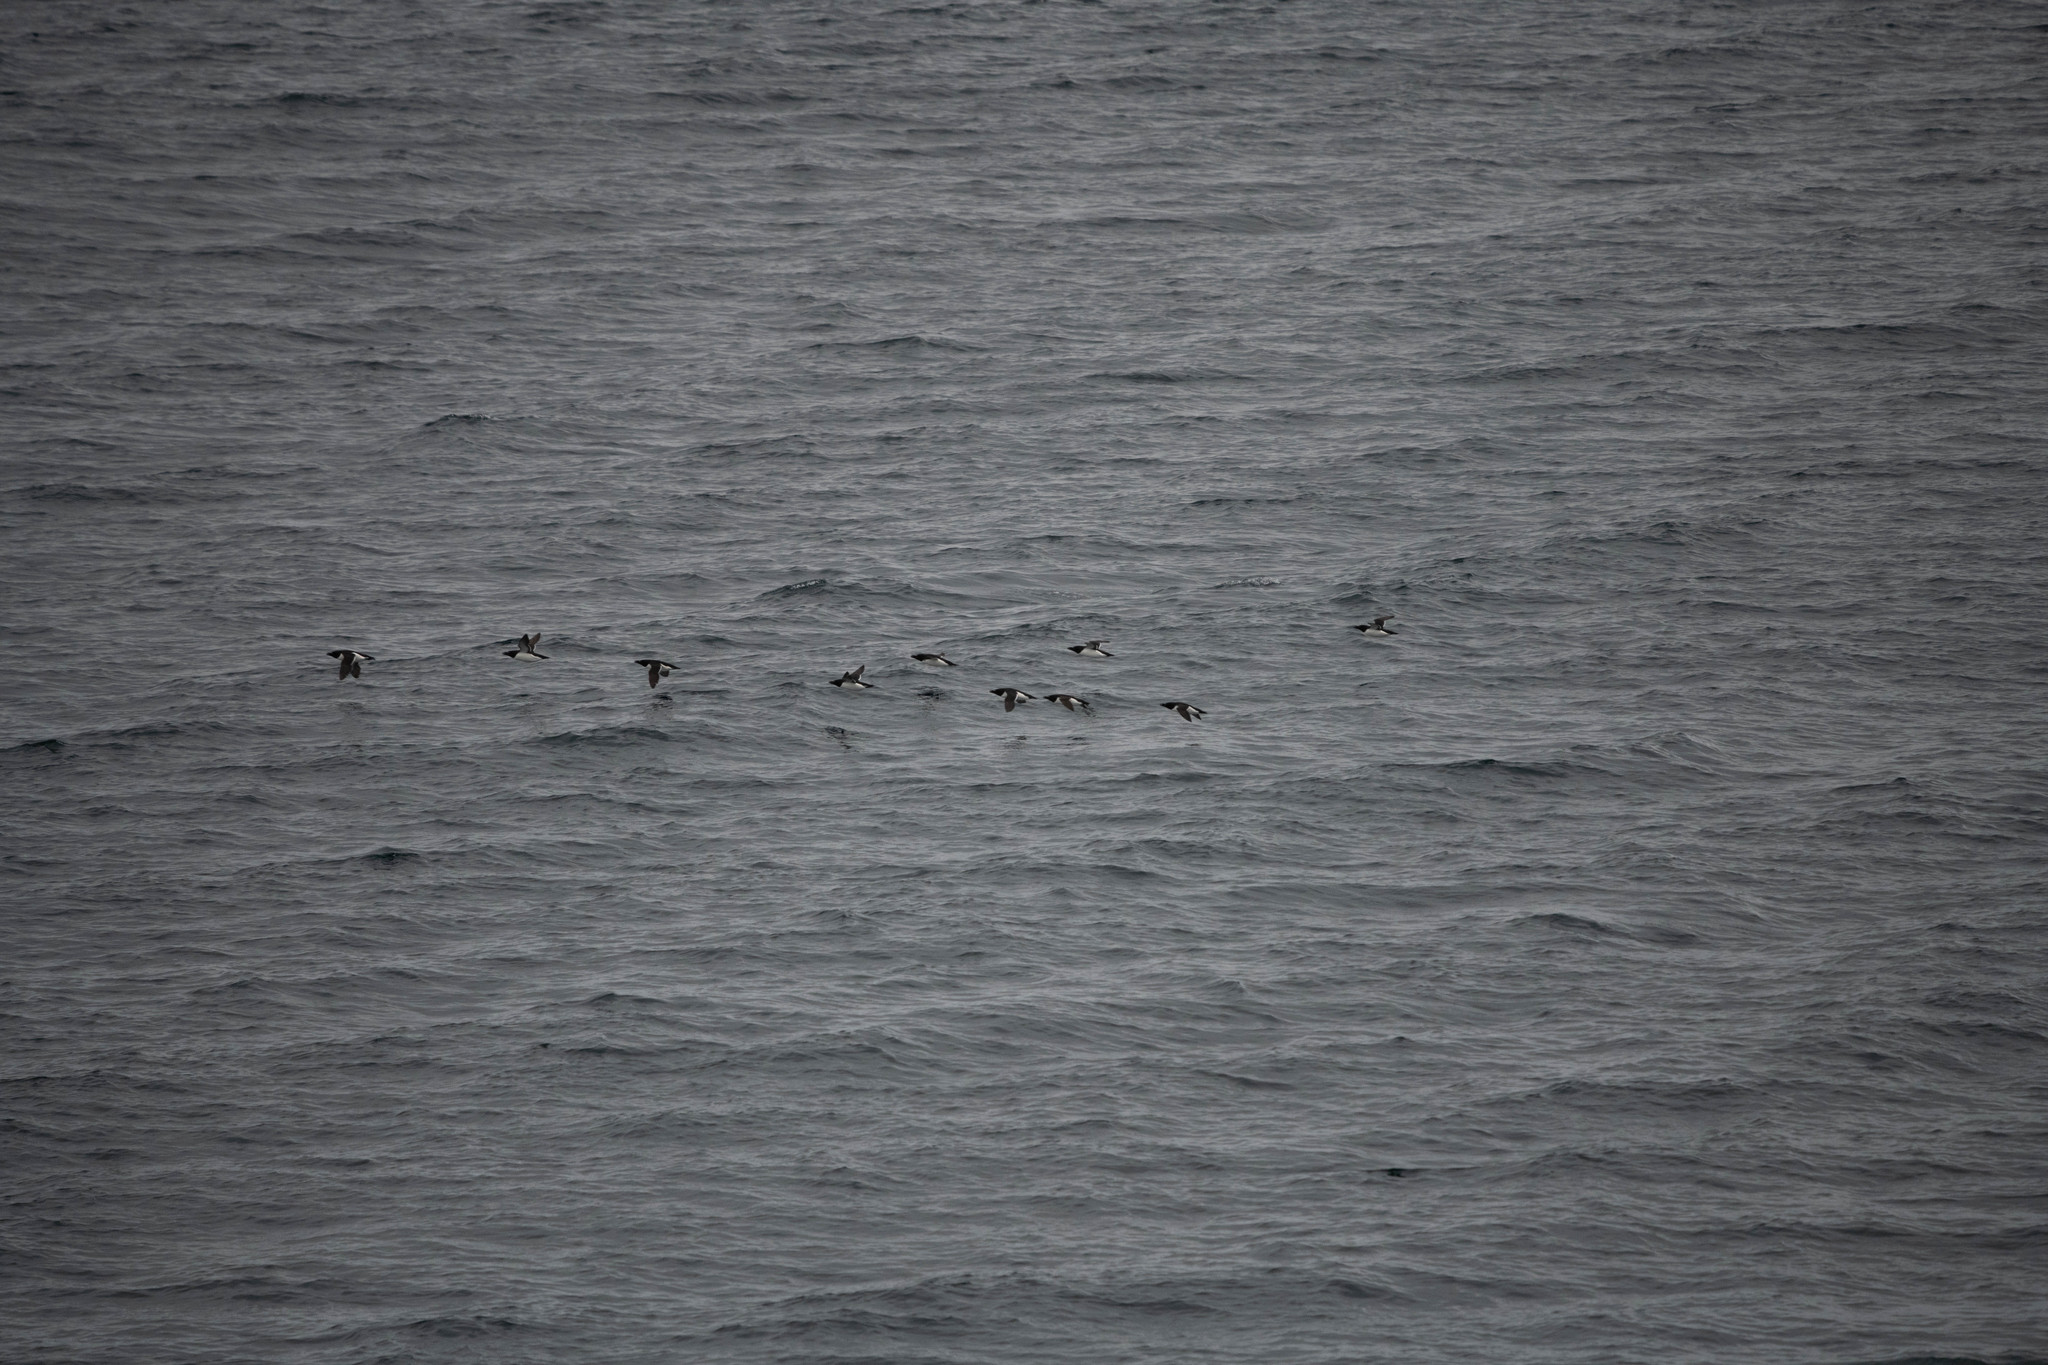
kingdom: Animalia
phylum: Chordata
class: Aves
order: Charadriiformes
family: Alcidae
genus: Alca
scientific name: Alca torda
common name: Razorbill
